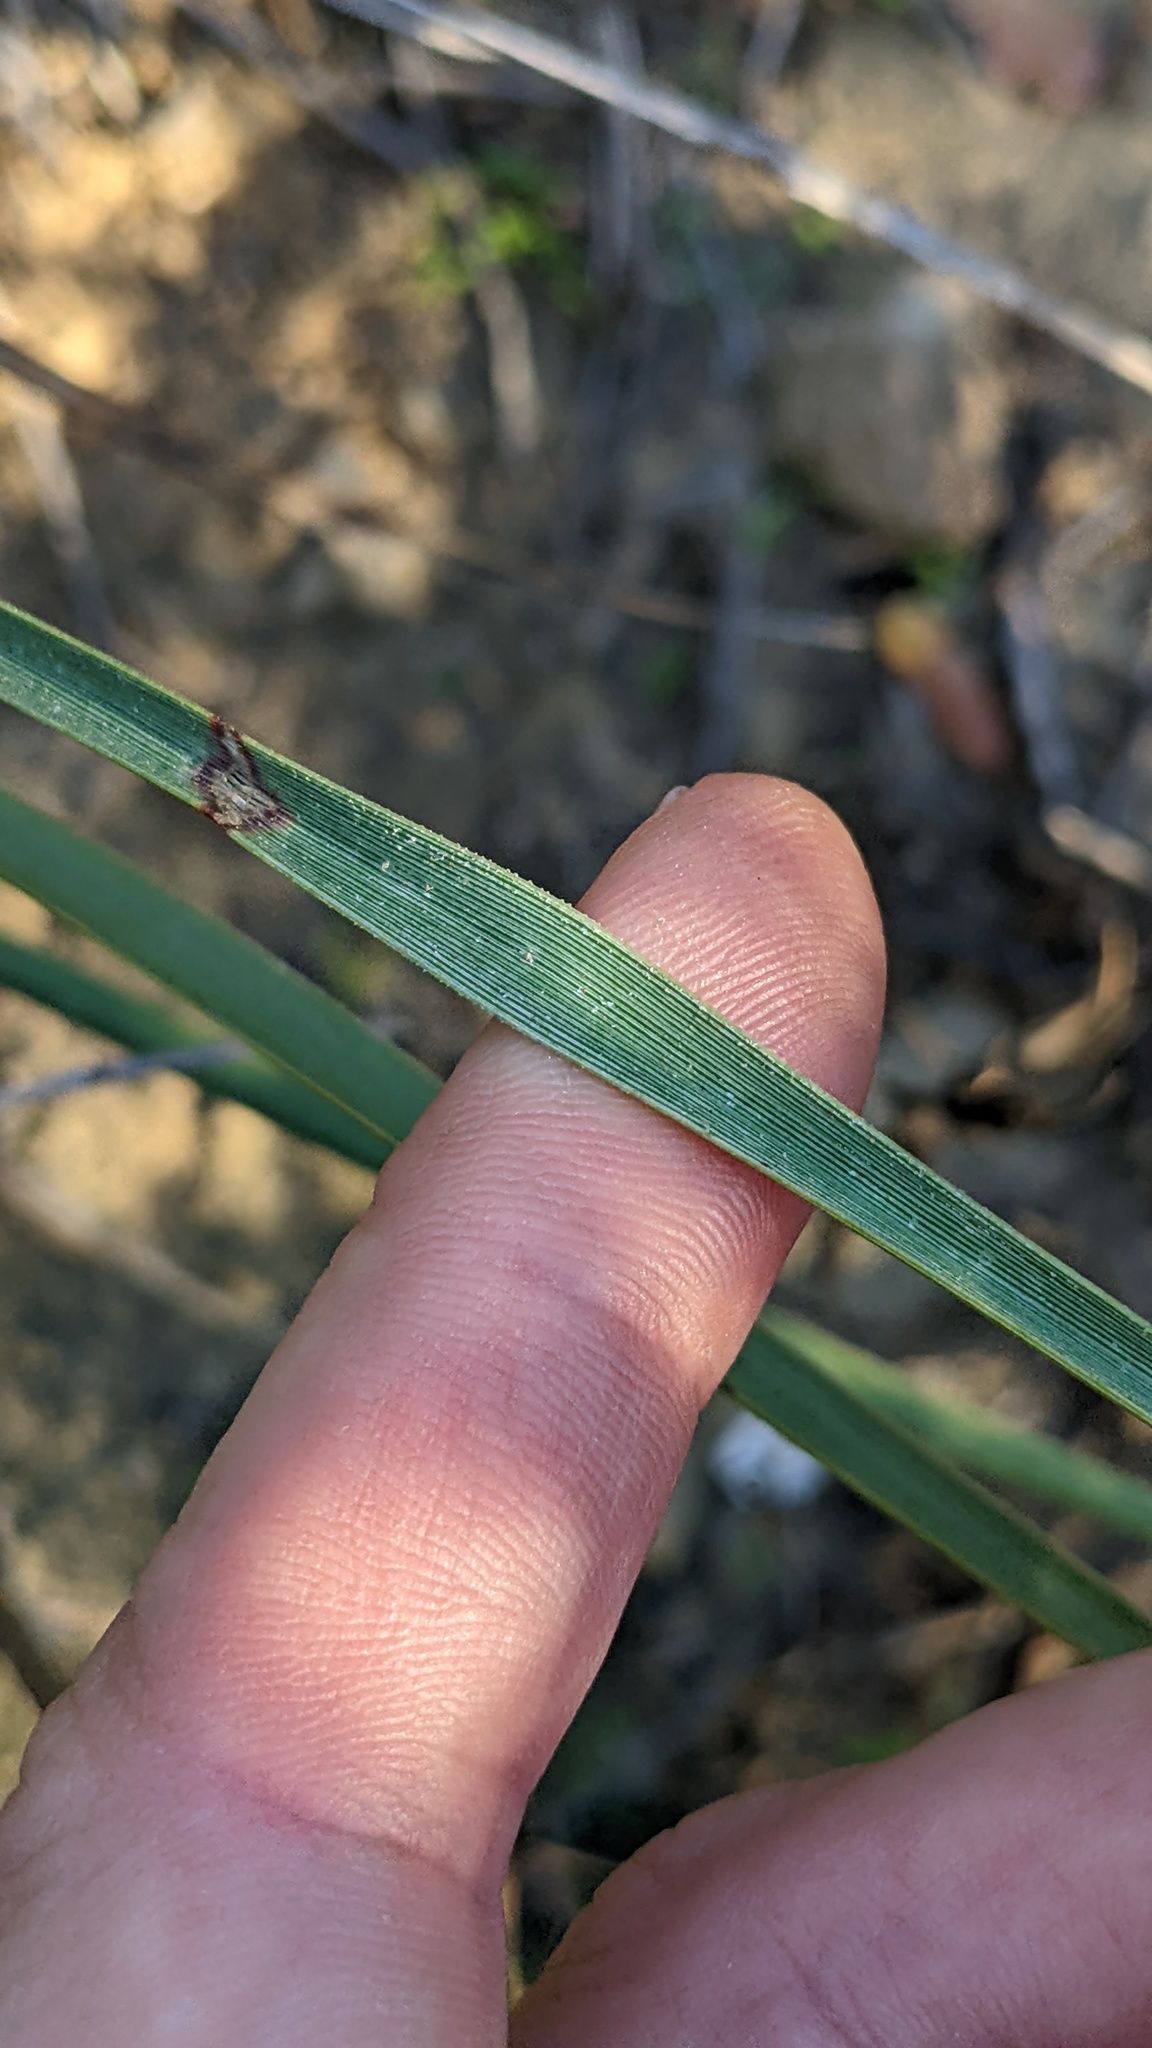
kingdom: Plantae
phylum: Tracheophyta
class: Liliopsida
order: Asparagales
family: Asparagaceae
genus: Hesperoyucca
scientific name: Hesperoyucca whipplei
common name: Our lord's-candle
